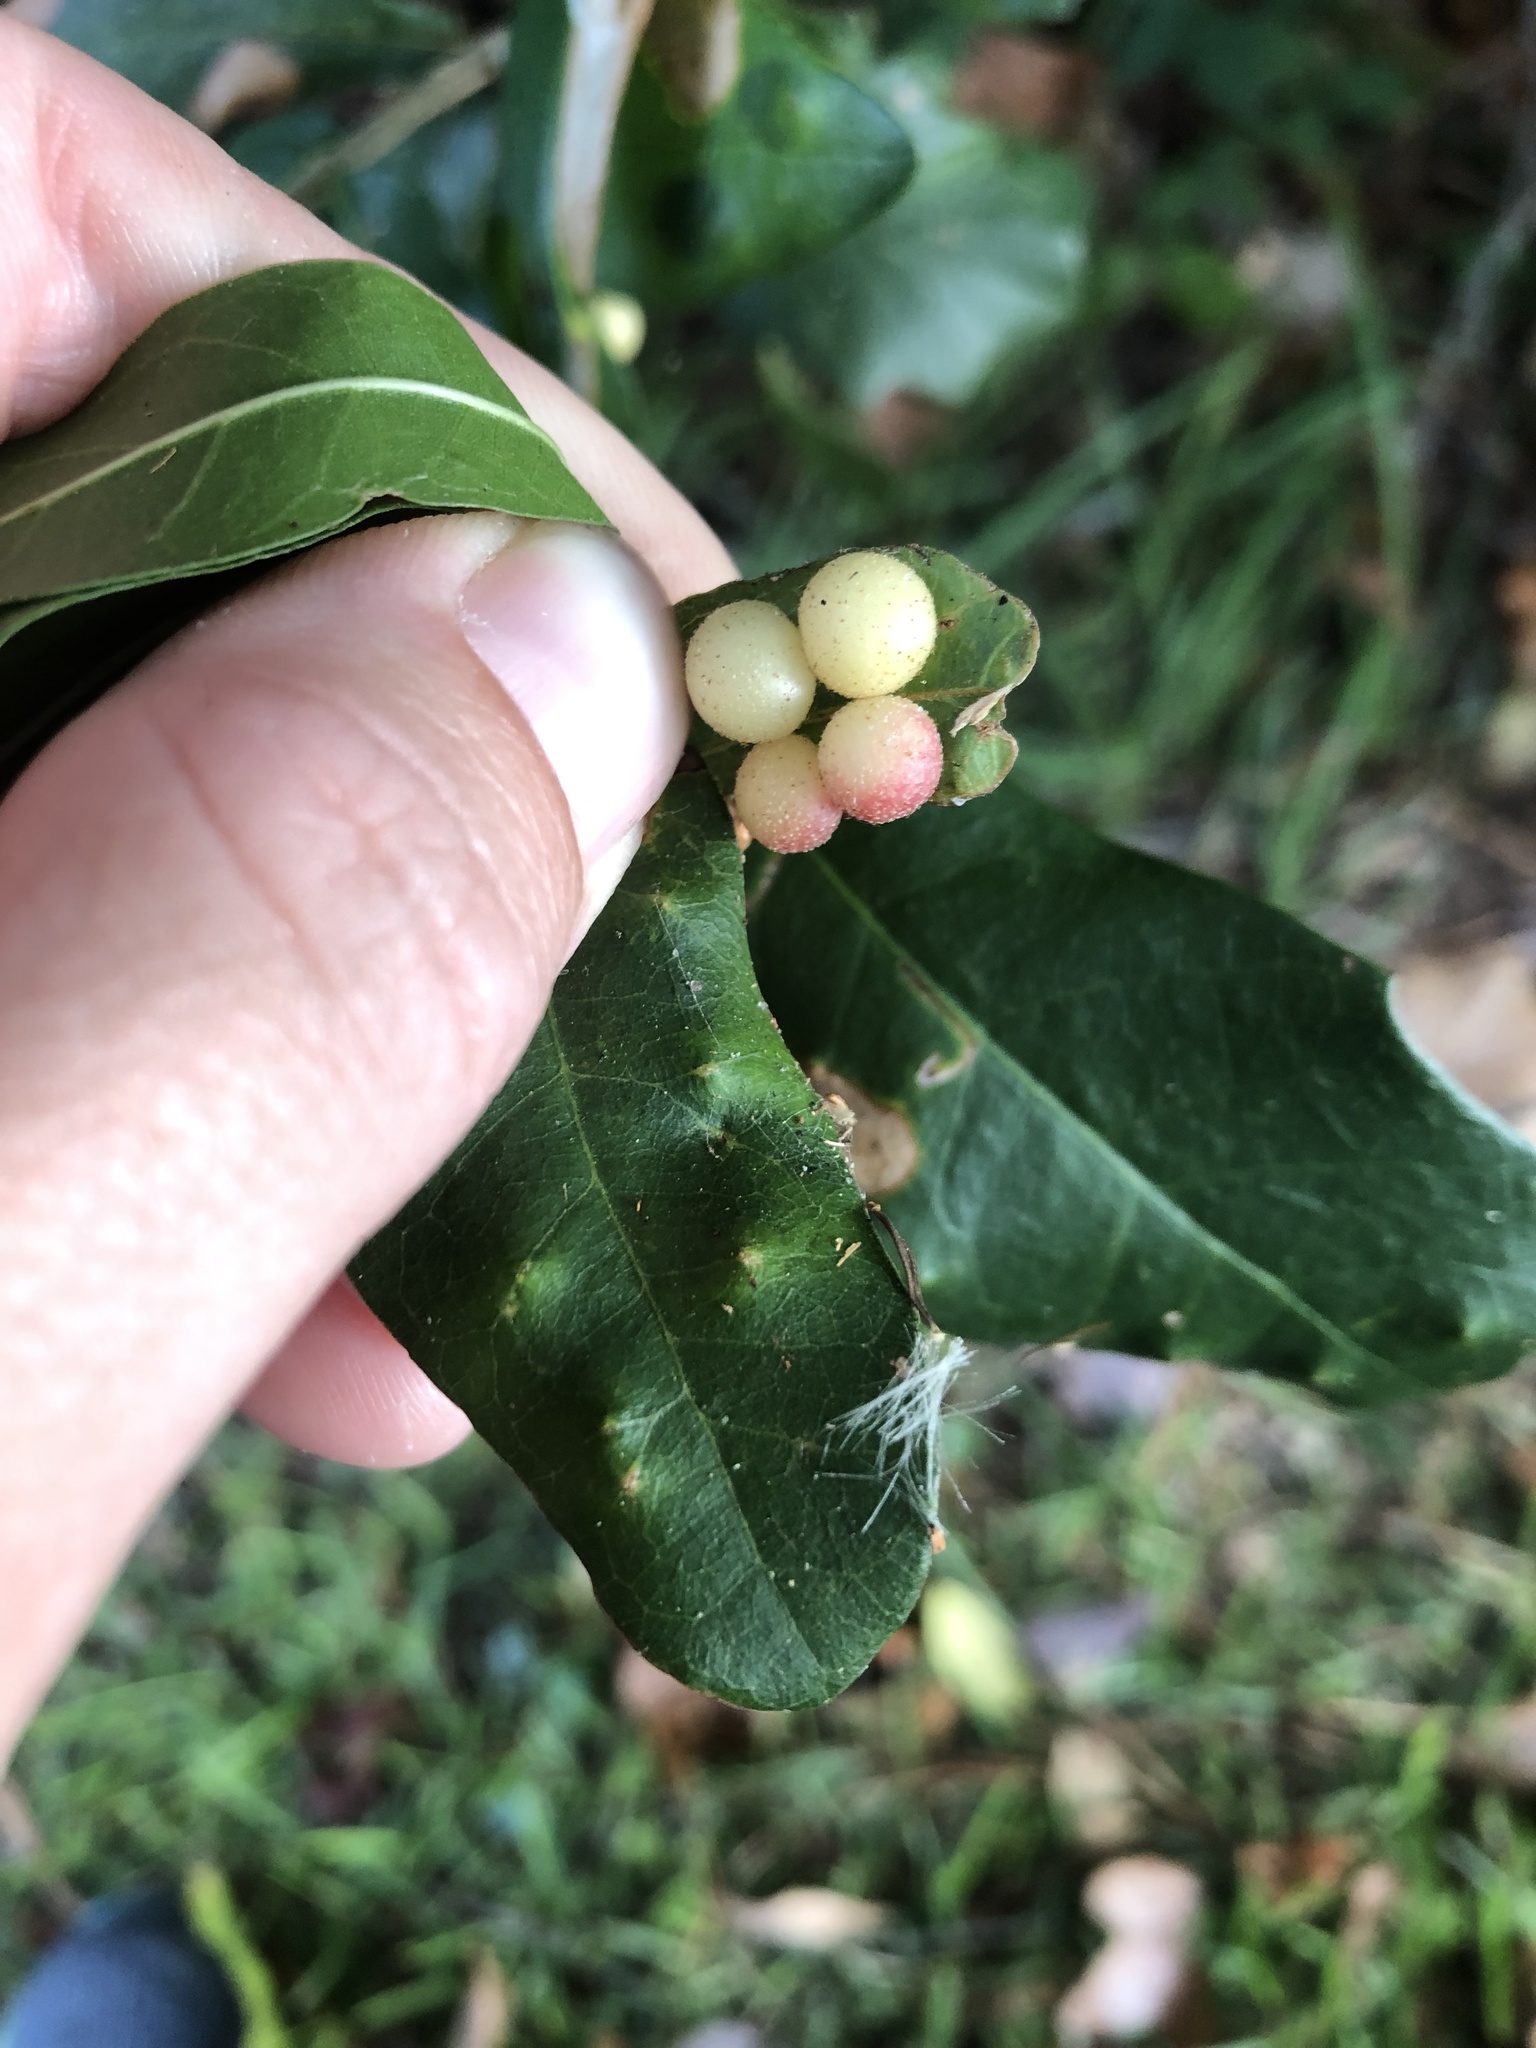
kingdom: Animalia
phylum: Arthropoda
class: Insecta
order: Hymenoptera
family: Cynipidae
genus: Belonocnema
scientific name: Belonocnema treatae
